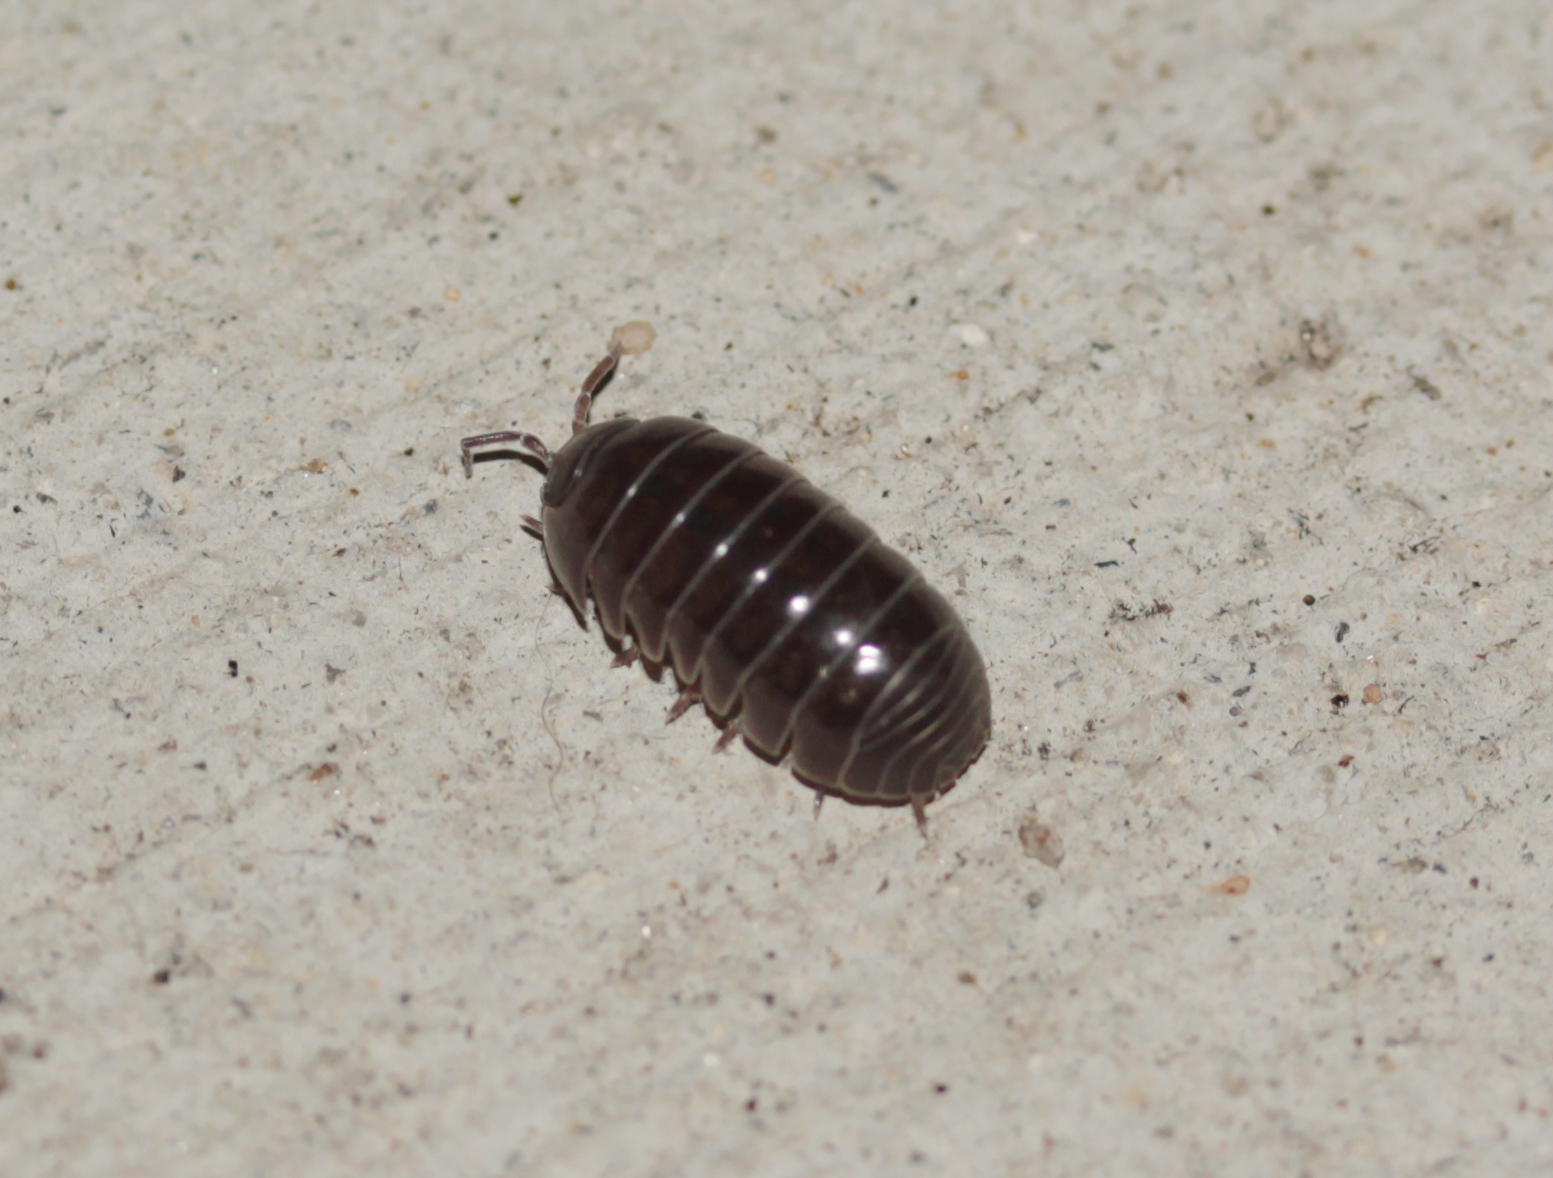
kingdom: Animalia
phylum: Arthropoda
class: Malacostraca
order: Isopoda
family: Armadillidiidae
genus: Armadillidium
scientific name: Armadillidium vulgare
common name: Common pill woodlouse
